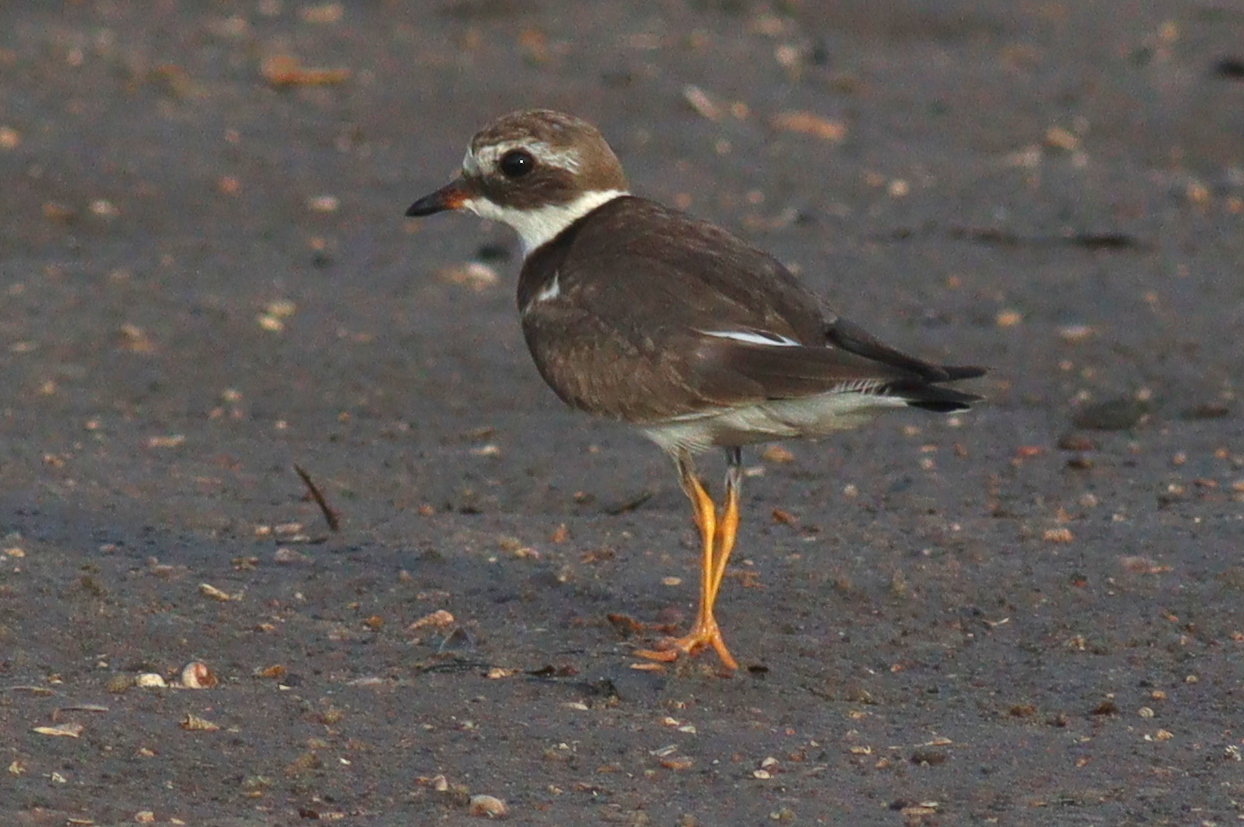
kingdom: Animalia
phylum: Chordata
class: Aves
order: Charadriiformes
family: Charadriidae
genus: Charadrius
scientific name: Charadrius hiaticula
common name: Common ringed plover
